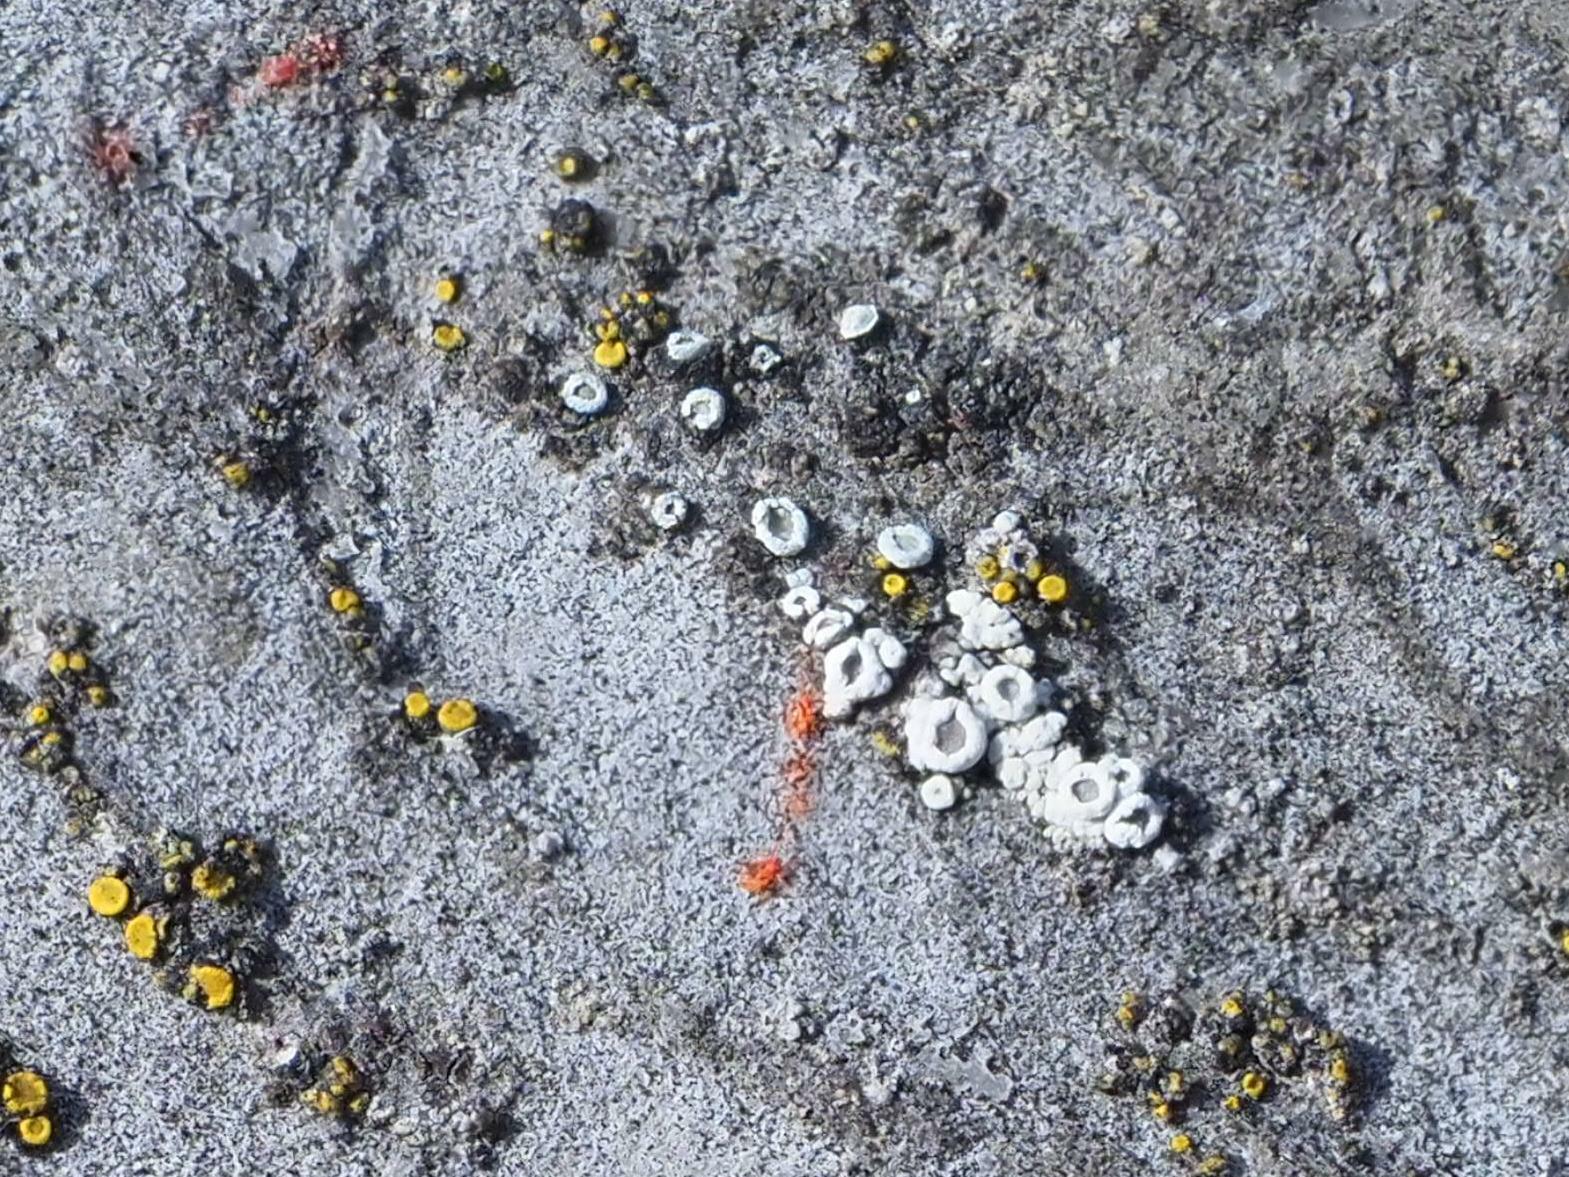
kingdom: Fungi
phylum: Ascomycota
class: Lecanoromycetes
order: Lecanorales
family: Lecanoraceae
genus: Polyozosia
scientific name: Polyozosia dispersa
